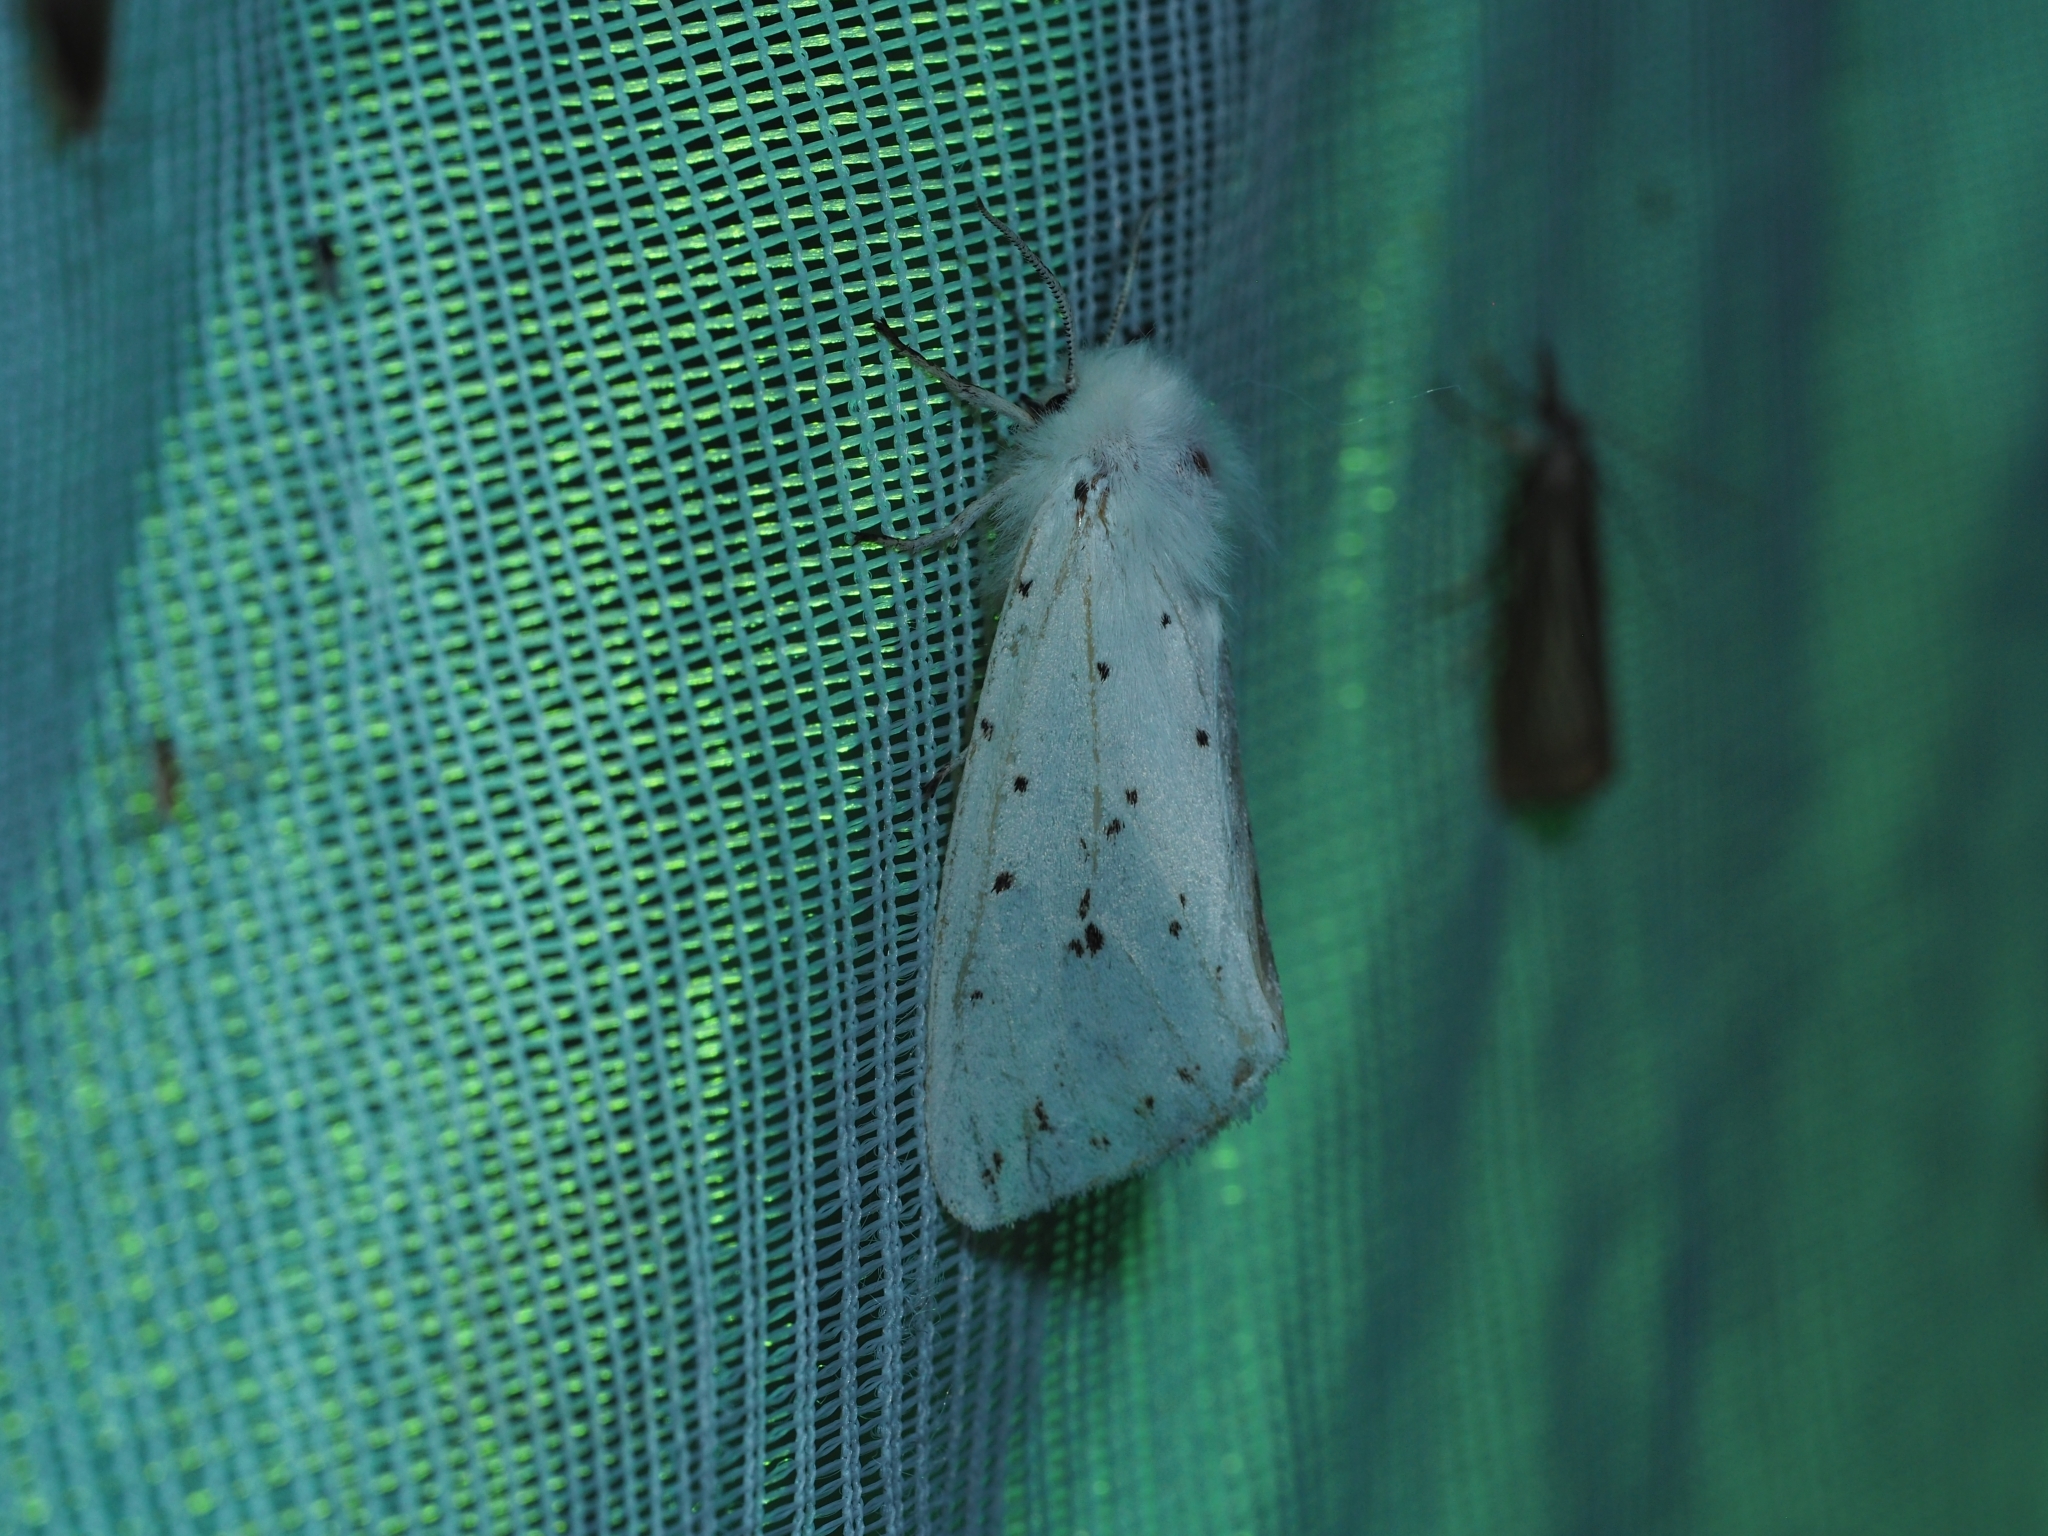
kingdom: Animalia
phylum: Arthropoda
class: Insecta
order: Lepidoptera
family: Erebidae
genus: Spilosoma
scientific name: Spilosoma lubricipeda
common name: White ermine
